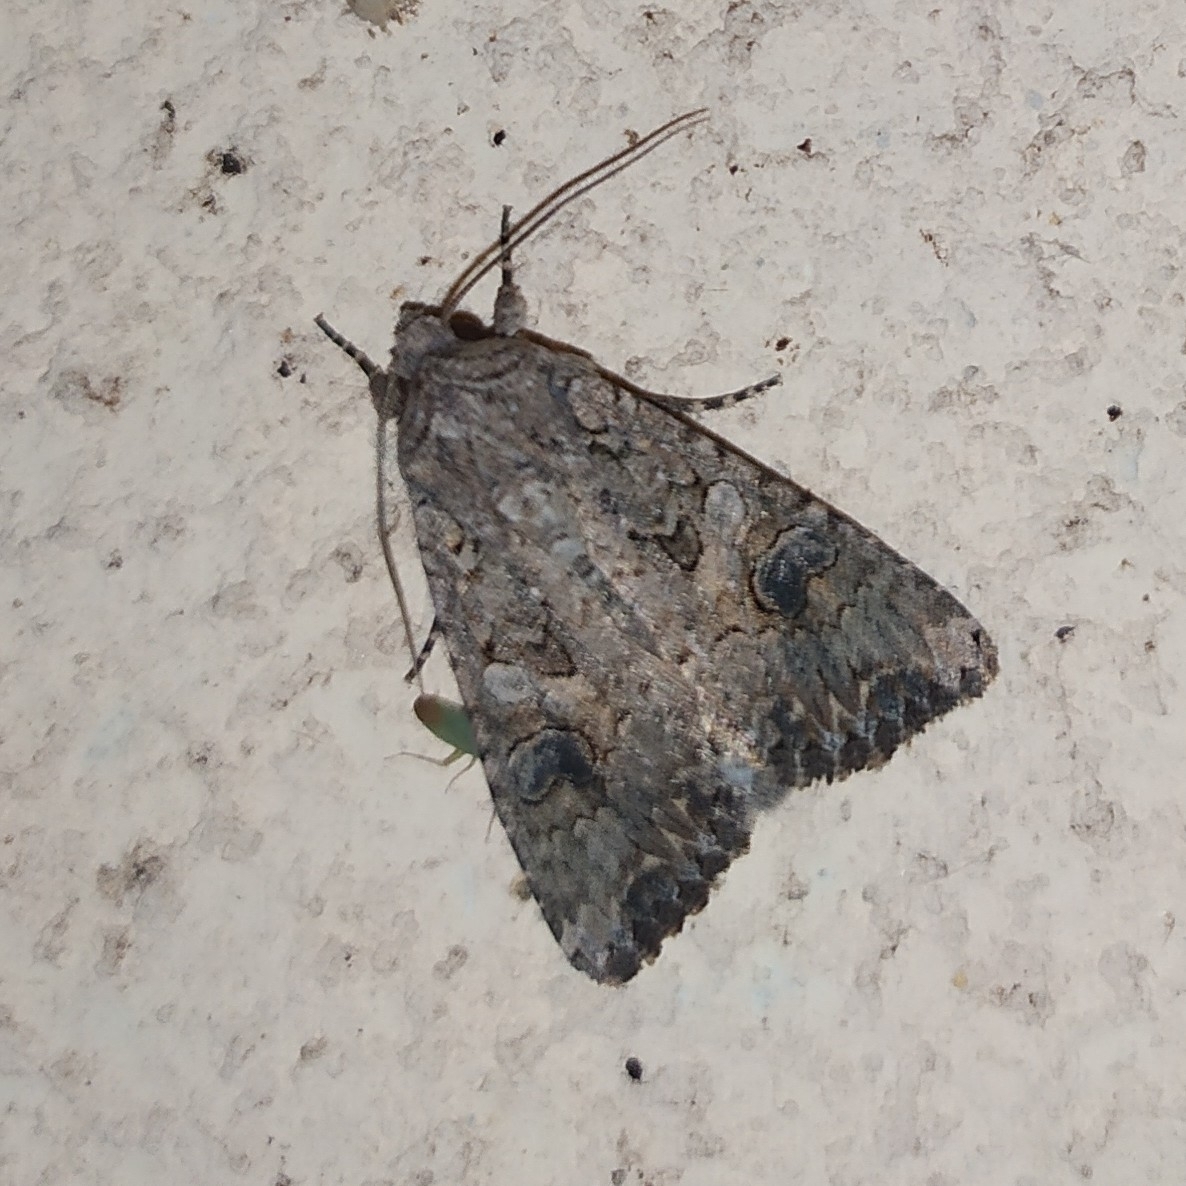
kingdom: Animalia
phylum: Arthropoda
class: Insecta
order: Lepidoptera
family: Noctuidae
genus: Anarta
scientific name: Anarta trifolii
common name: Clover cutworm moth
